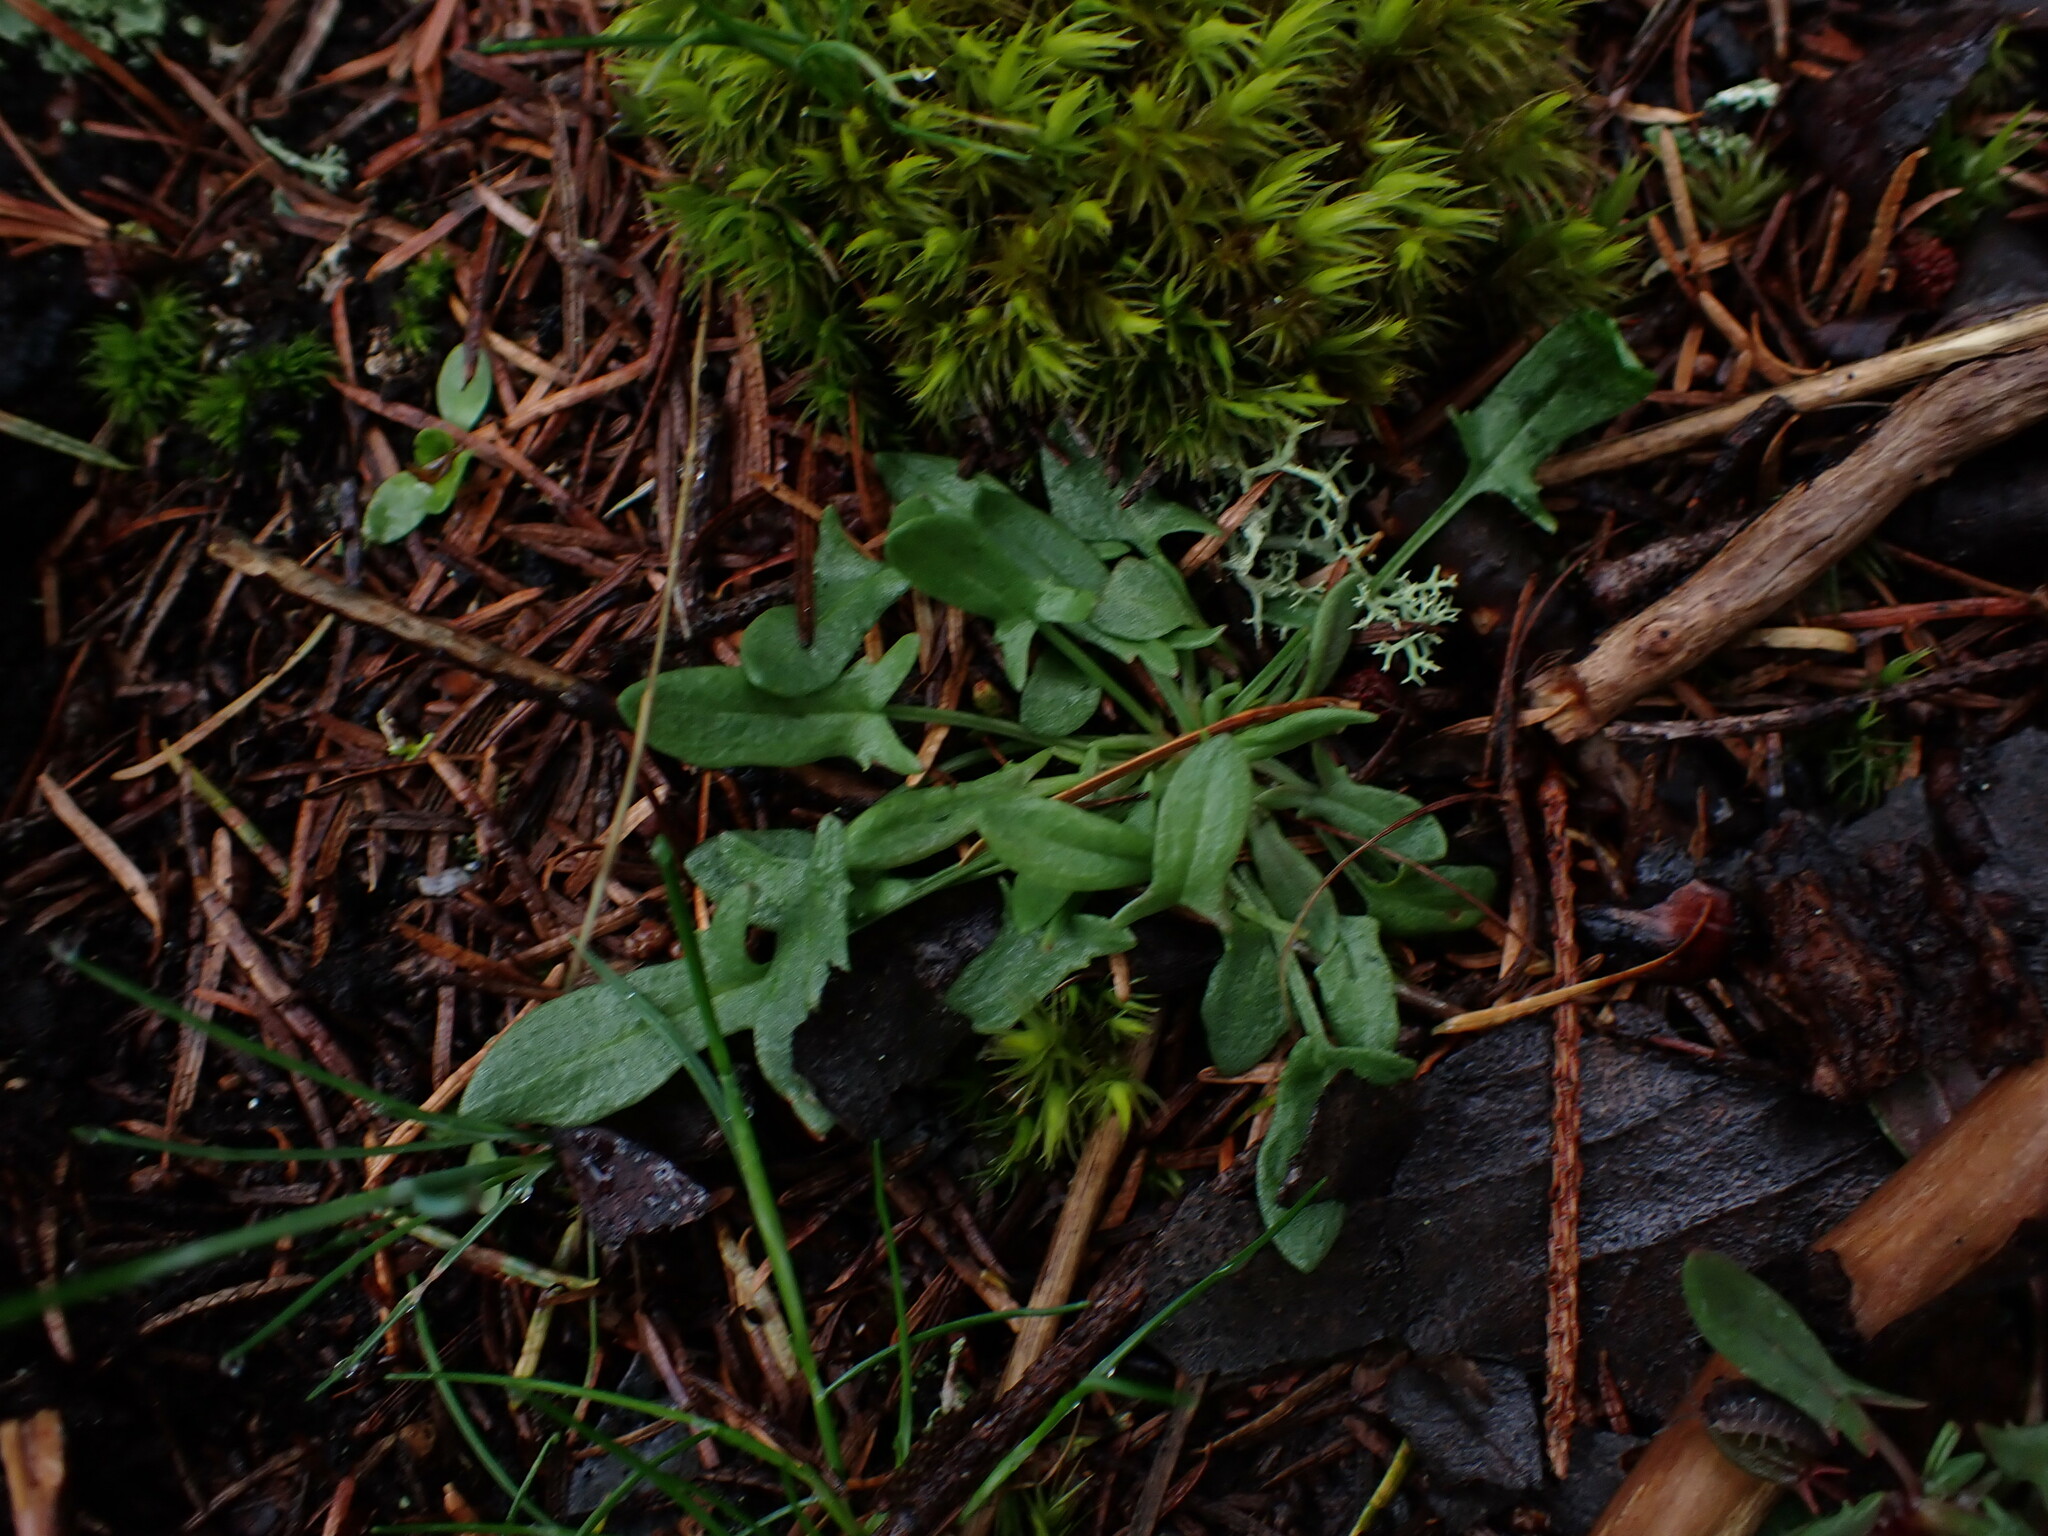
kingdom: Plantae
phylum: Tracheophyta
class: Magnoliopsida
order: Caryophyllales
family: Polygonaceae
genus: Rumex
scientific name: Rumex acetosella
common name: Common sheep sorrel
